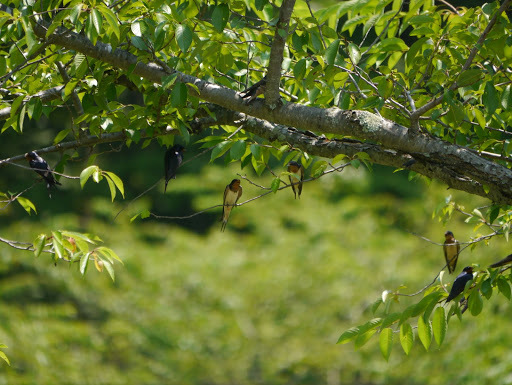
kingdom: Animalia
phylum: Chordata
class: Aves
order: Passeriformes
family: Hirundinidae
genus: Hirundo
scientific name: Hirundo rustica
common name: Barn swallow
